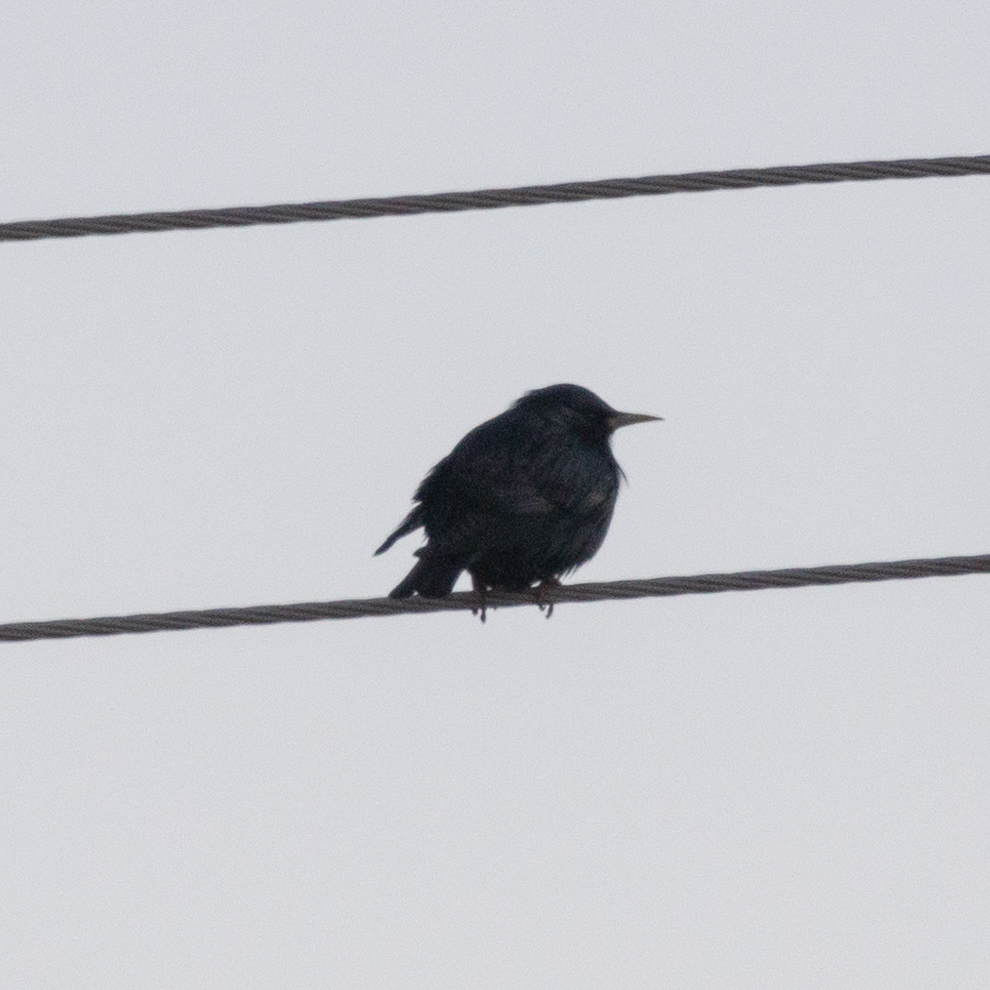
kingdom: Animalia
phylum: Chordata
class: Aves
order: Passeriformes
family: Sturnidae
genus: Sturnus
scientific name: Sturnus unicolor
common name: Spotless starling
